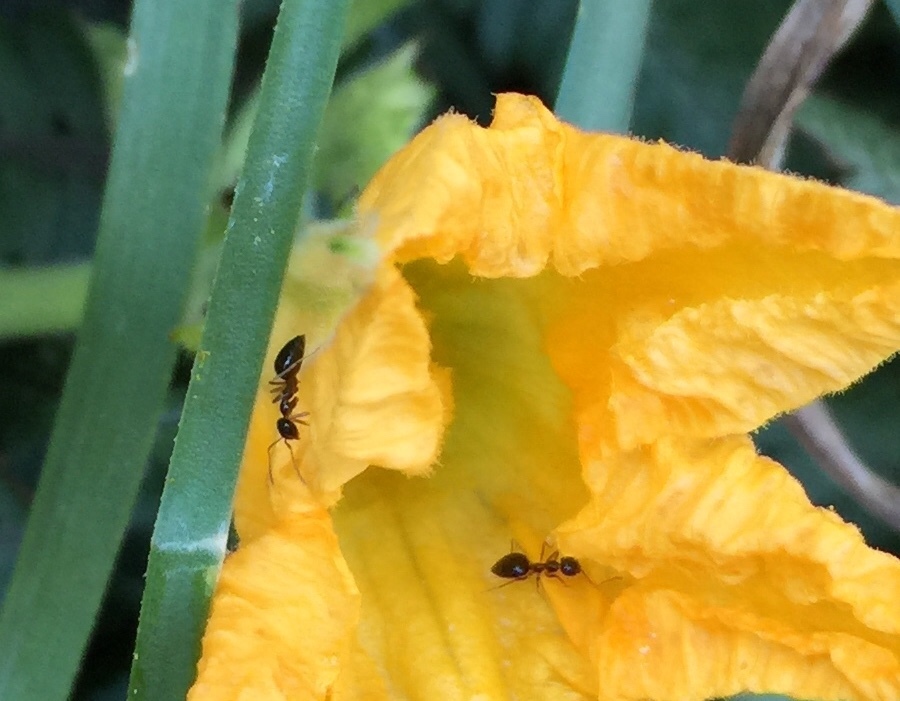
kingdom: Animalia
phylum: Arthropoda
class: Insecta
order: Hymenoptera
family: Formicidae
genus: Prenolepis
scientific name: Prenolepis imparis
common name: Small honey ant
